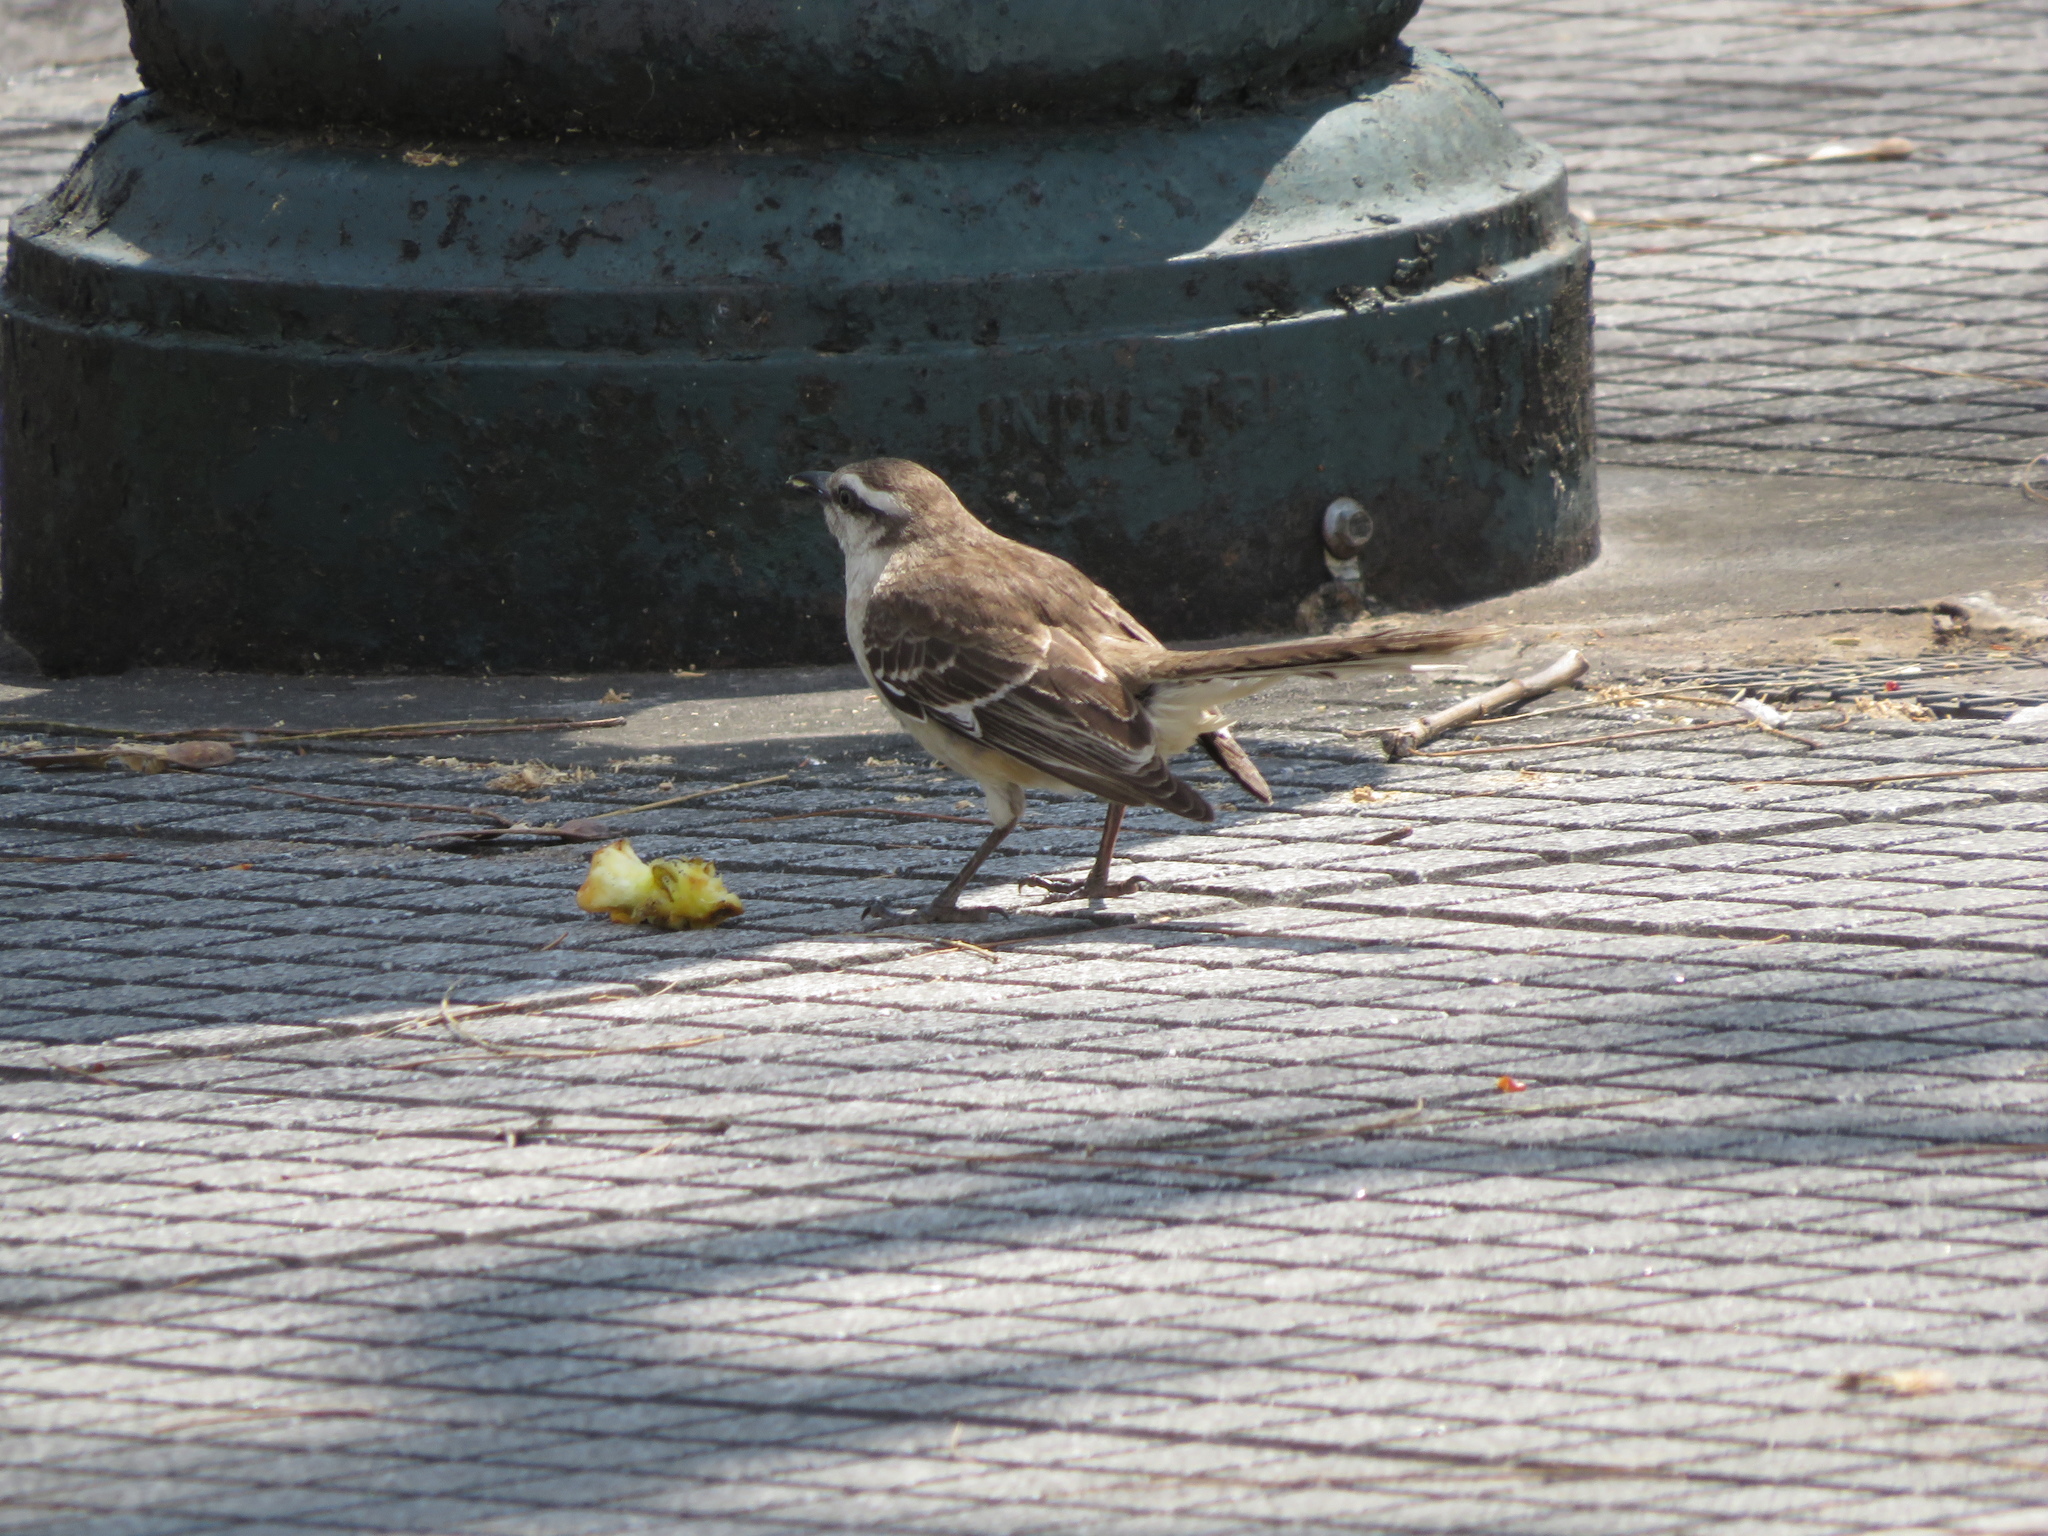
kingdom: Animalia
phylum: Chordata
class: Aves
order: Passeriformes
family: Mimidae
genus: Mimus
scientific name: Mimus saturninus
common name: Chalk-browed mockingbird
